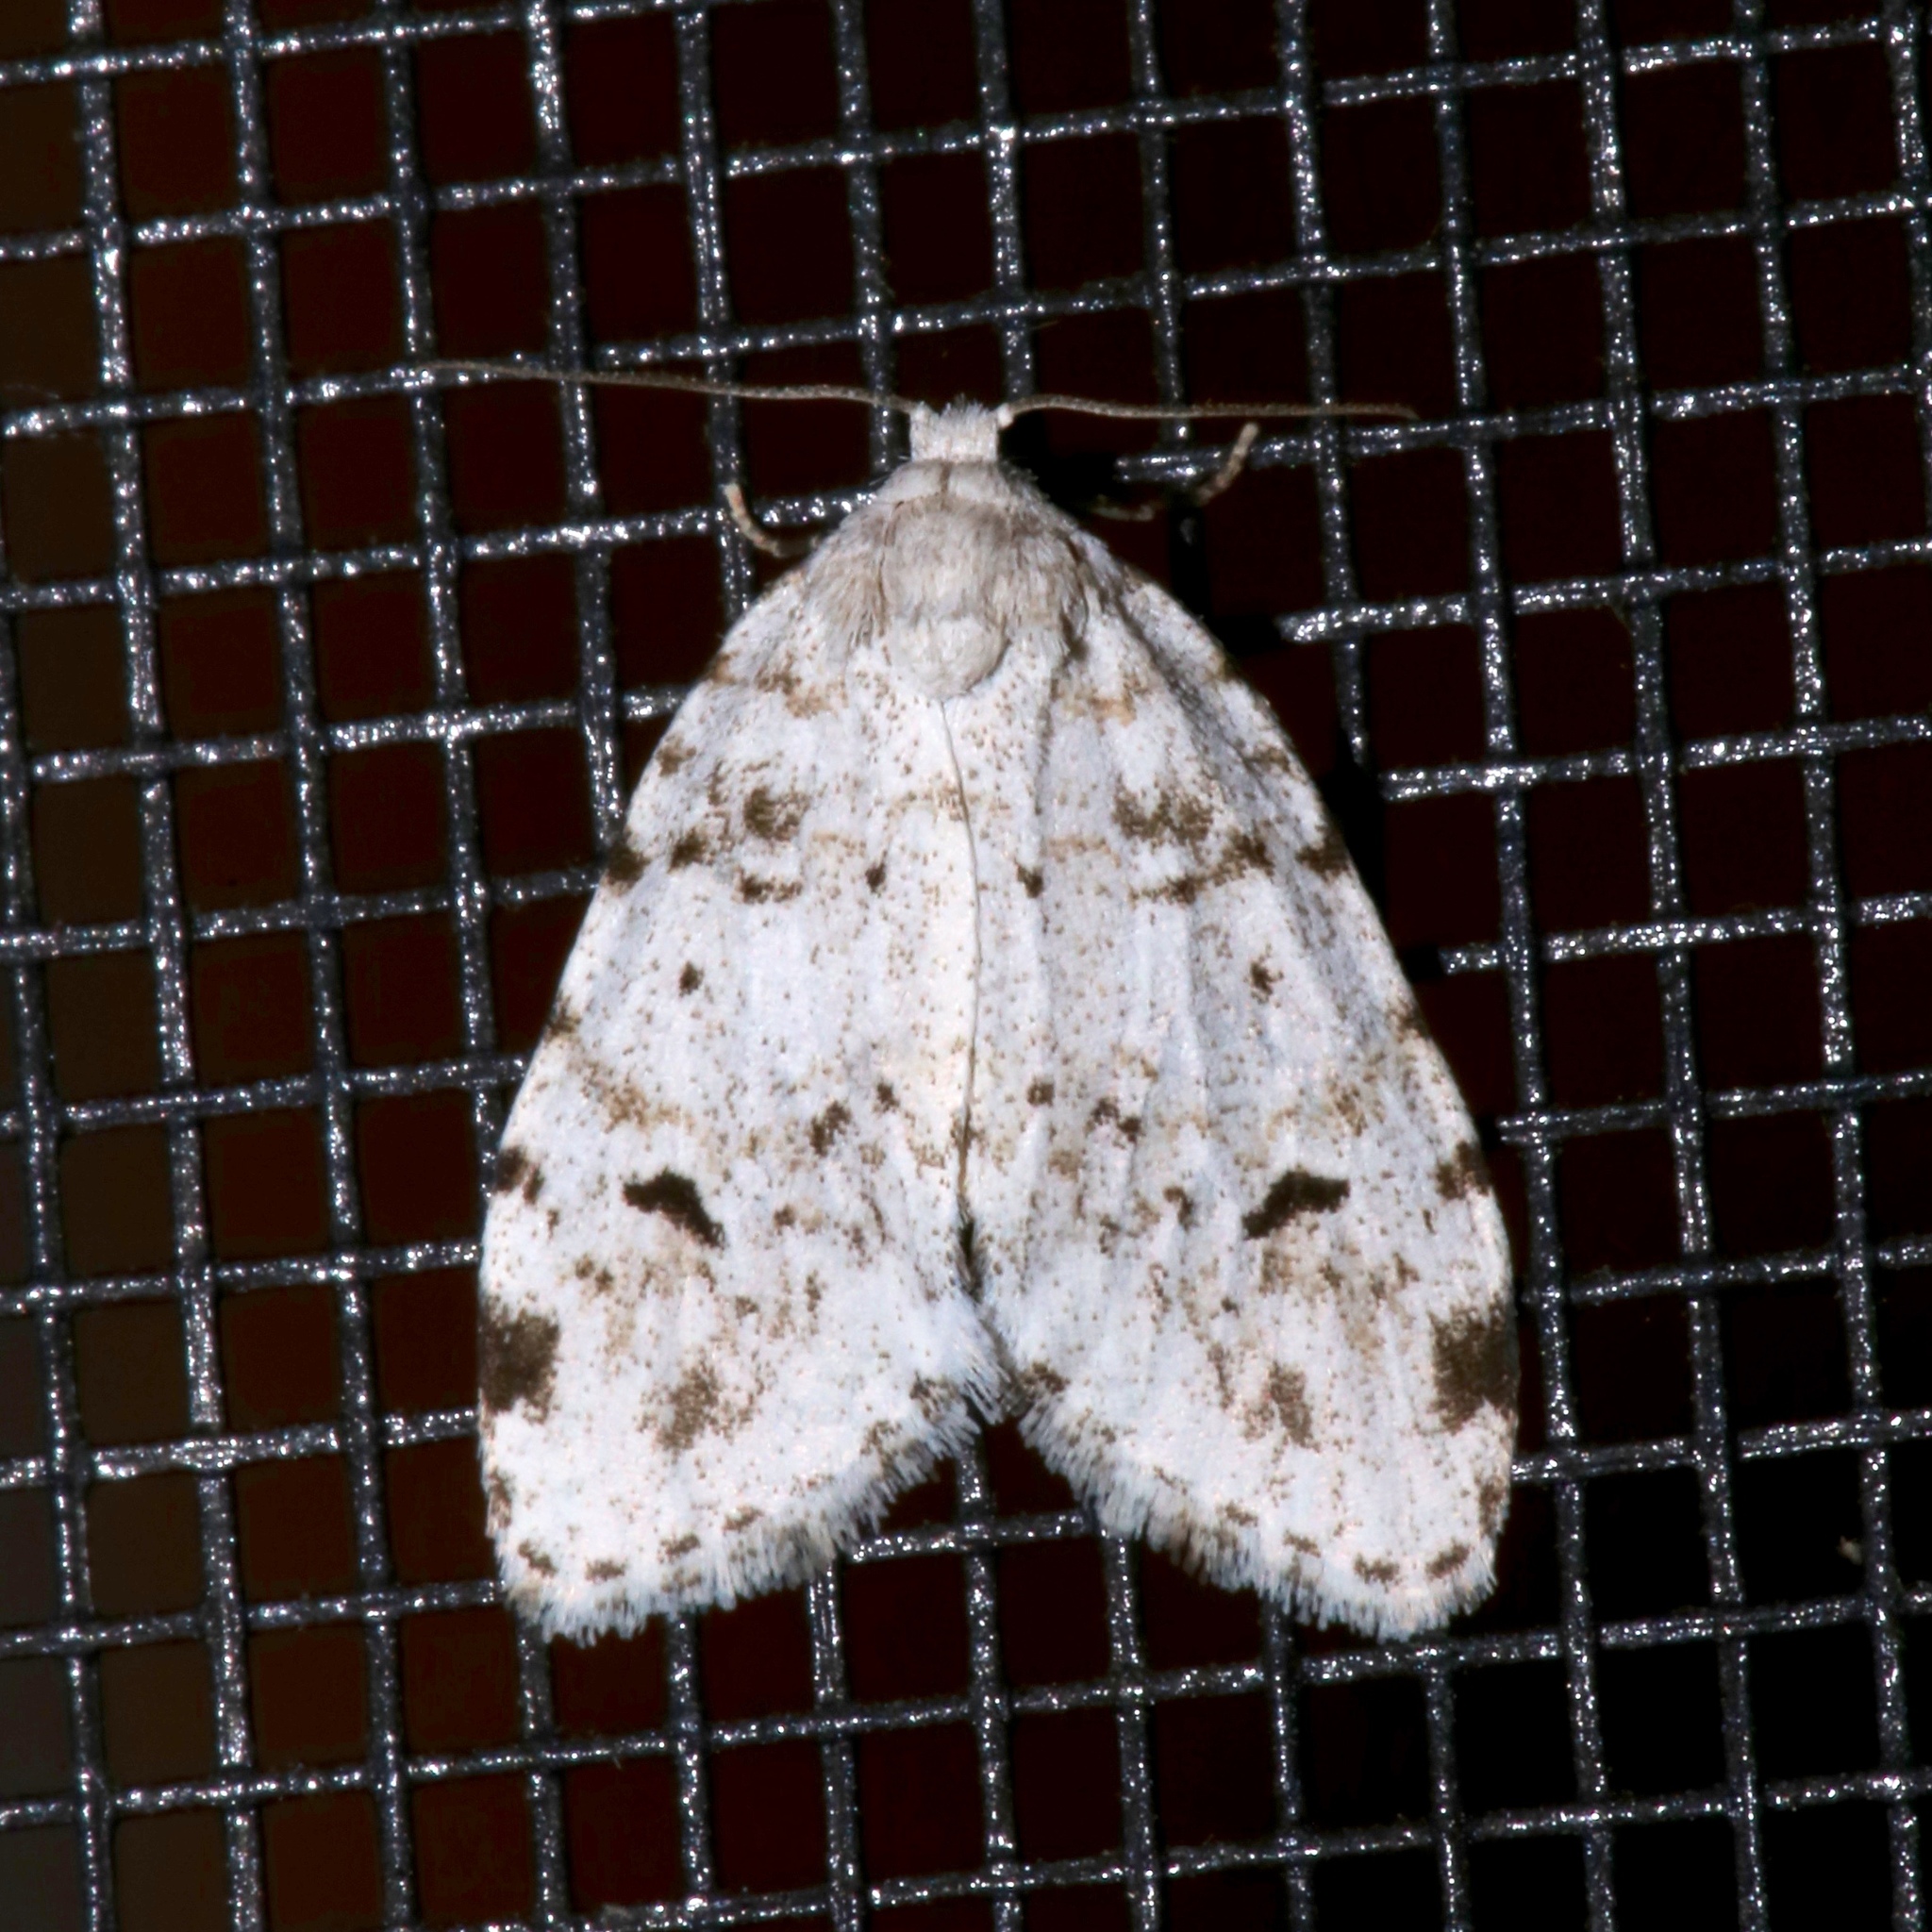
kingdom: Animalia
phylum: Arthropoda
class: Insecta
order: Lepidoptera
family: Erebidae
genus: Clemensia
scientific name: Clemensia albata
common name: Little white lichen moth
